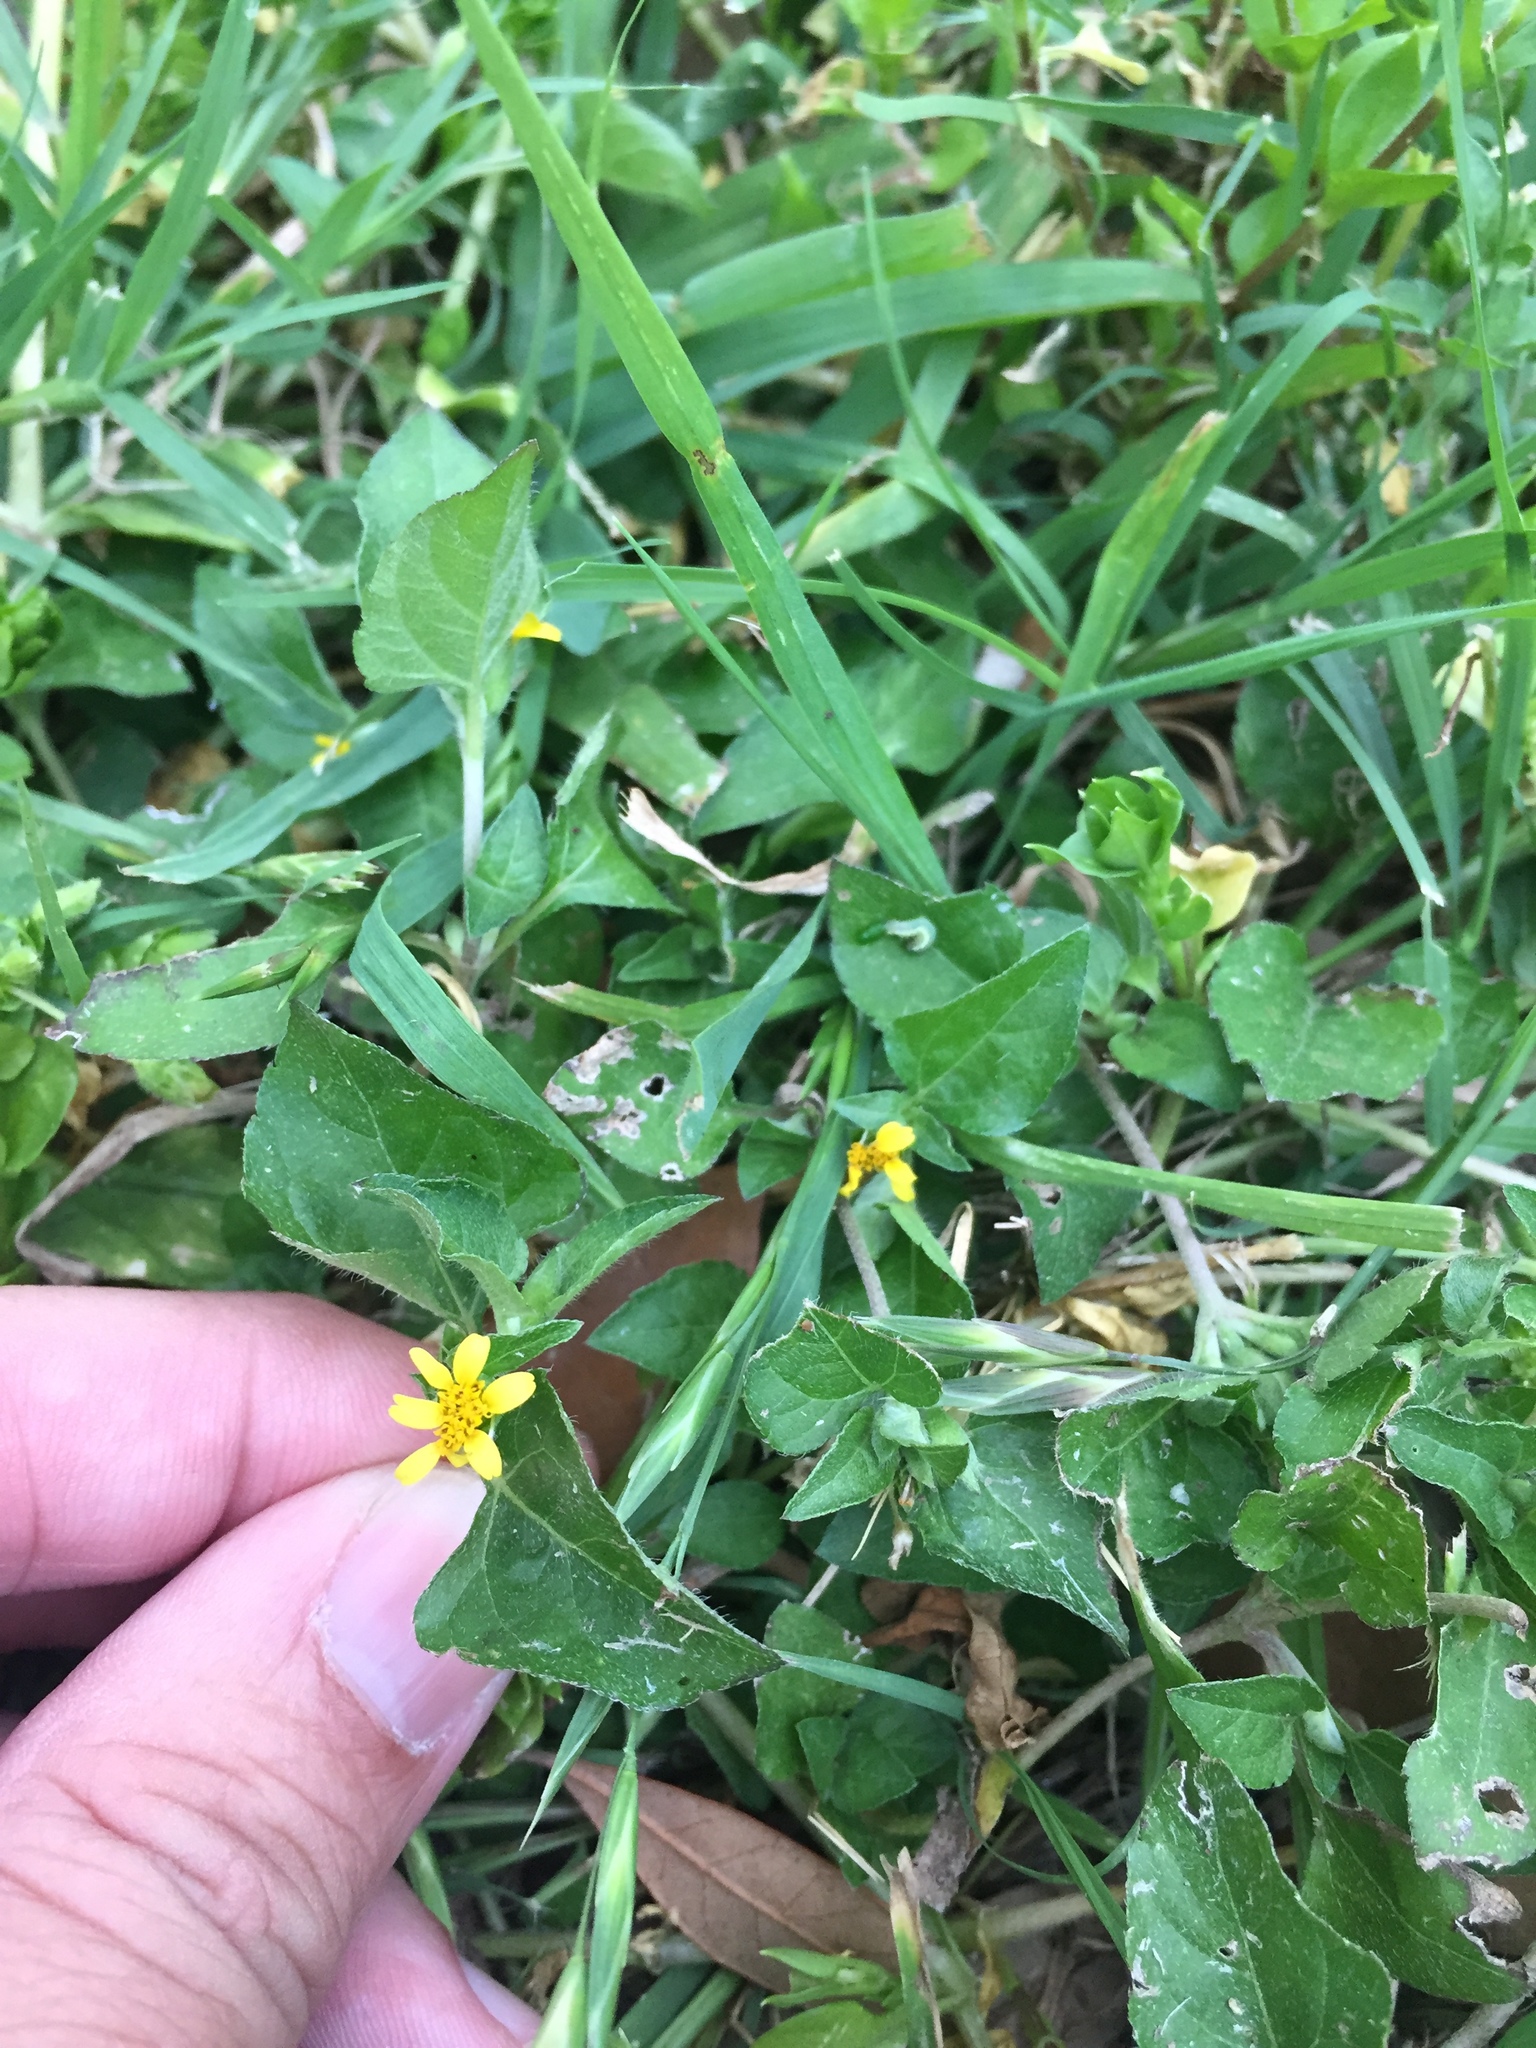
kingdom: Plantae
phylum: Tracheophyta
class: Magnoliopsida
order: Asterales
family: Asteraceae
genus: Calyptocarpus
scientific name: Calyptocarpus vialis
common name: Straggler daisy
